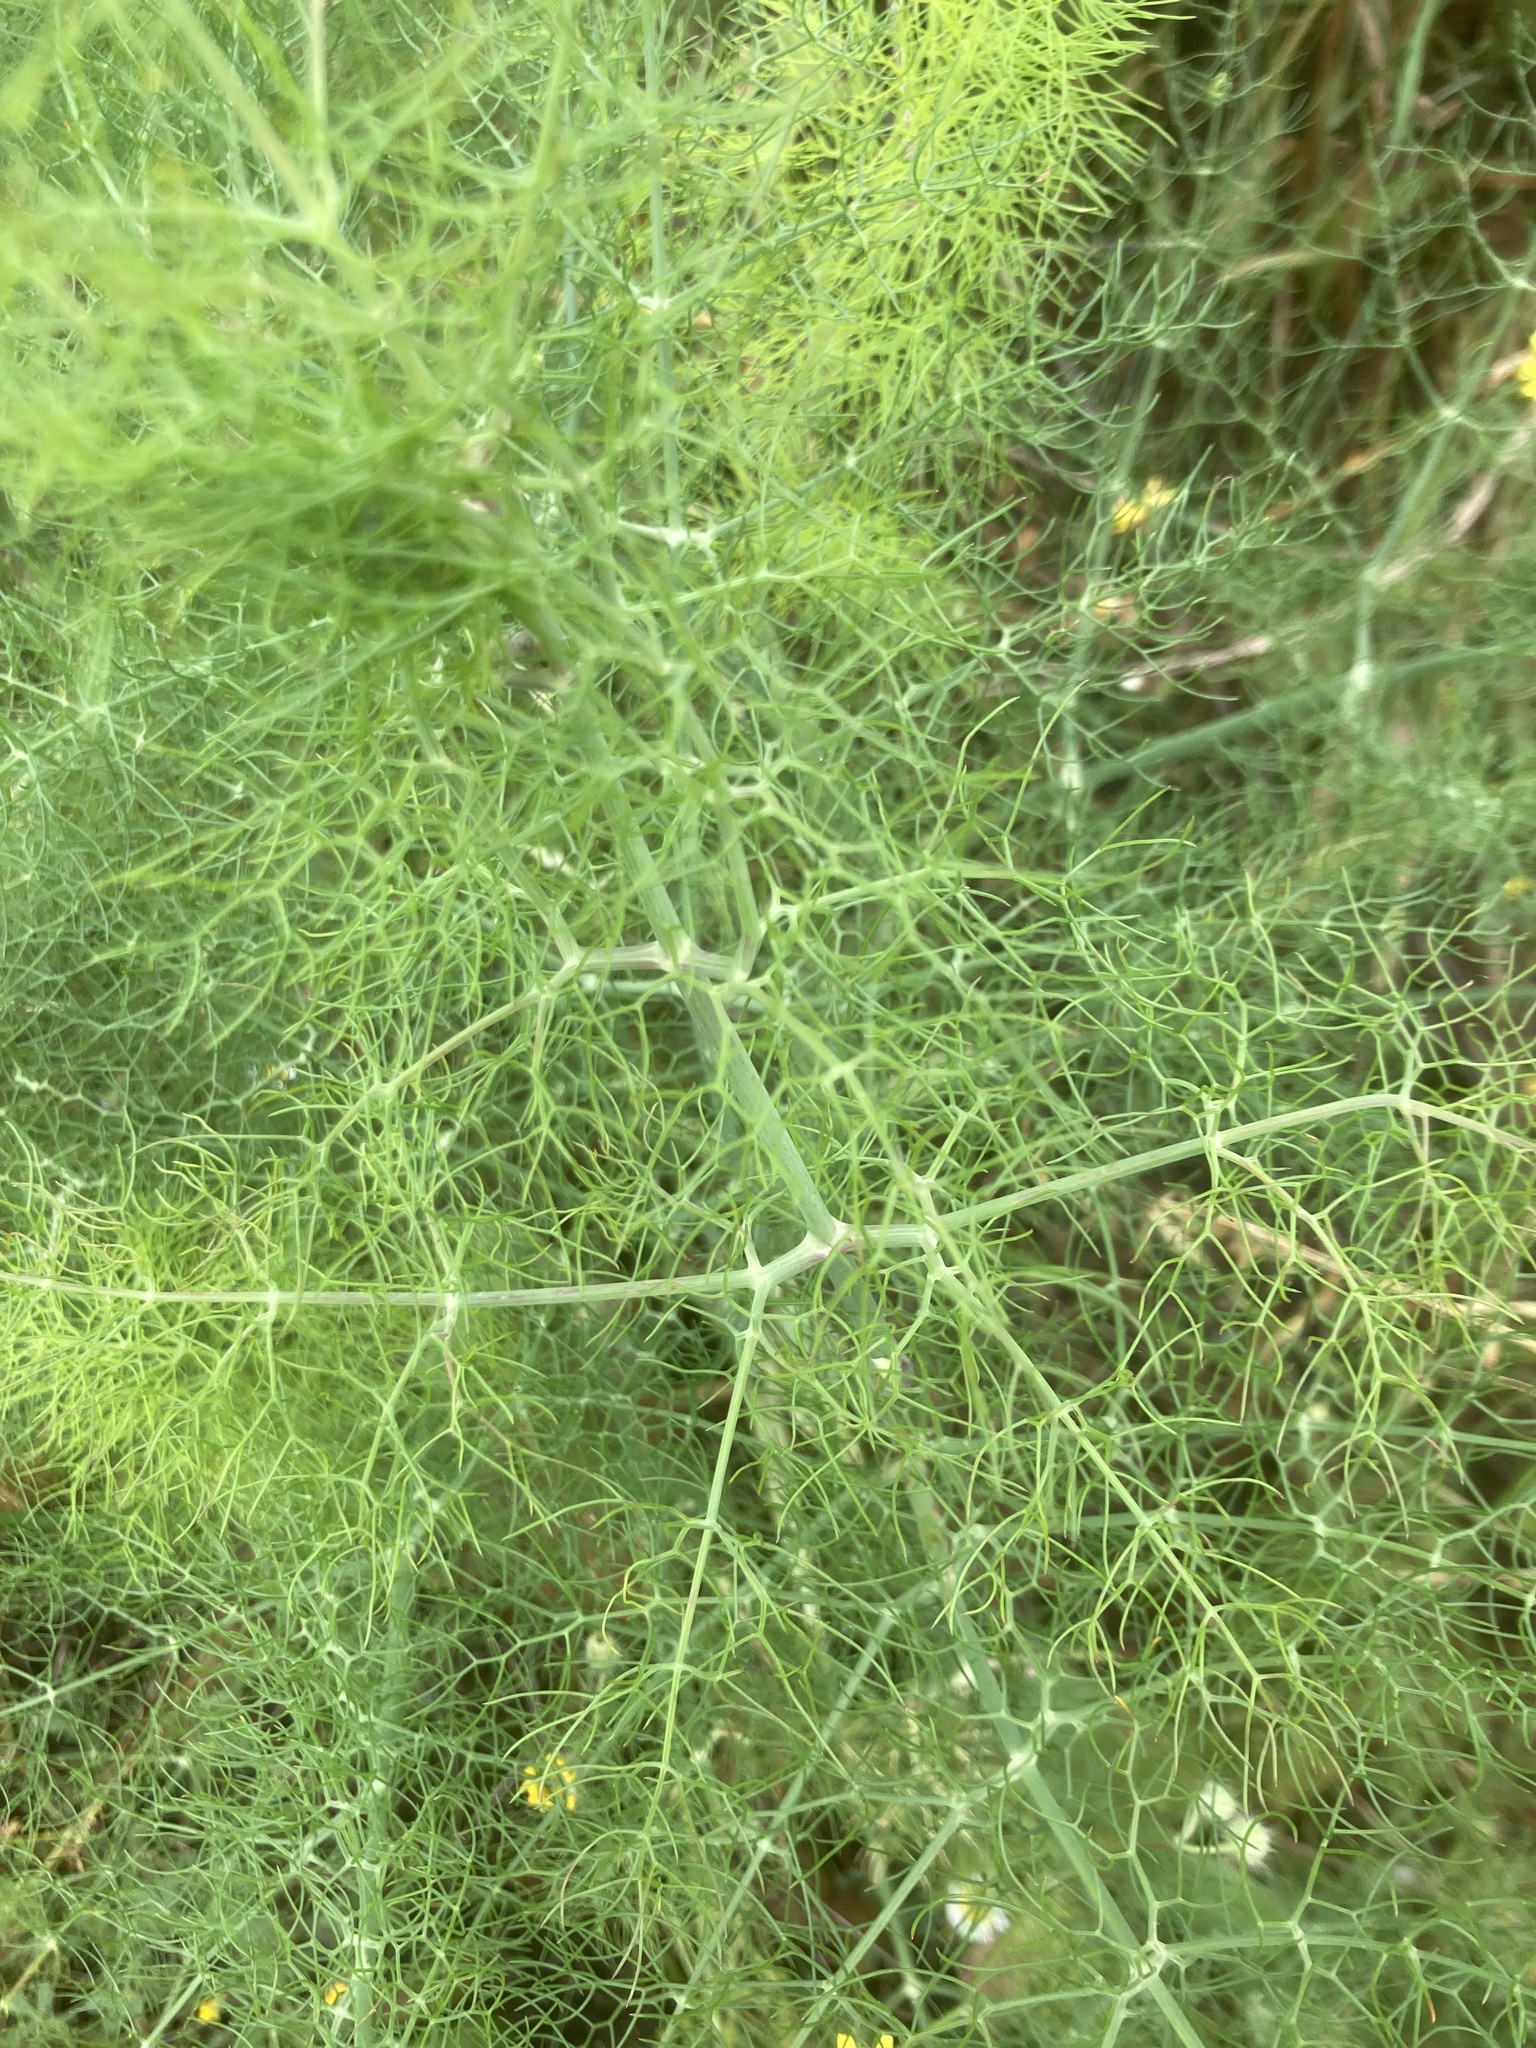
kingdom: Plantae
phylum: Tracheophyta
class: Magnoliopsida
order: Apiales
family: Apiaceae
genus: Foeniculum
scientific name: Foeniculum vulgare
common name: Fennel
